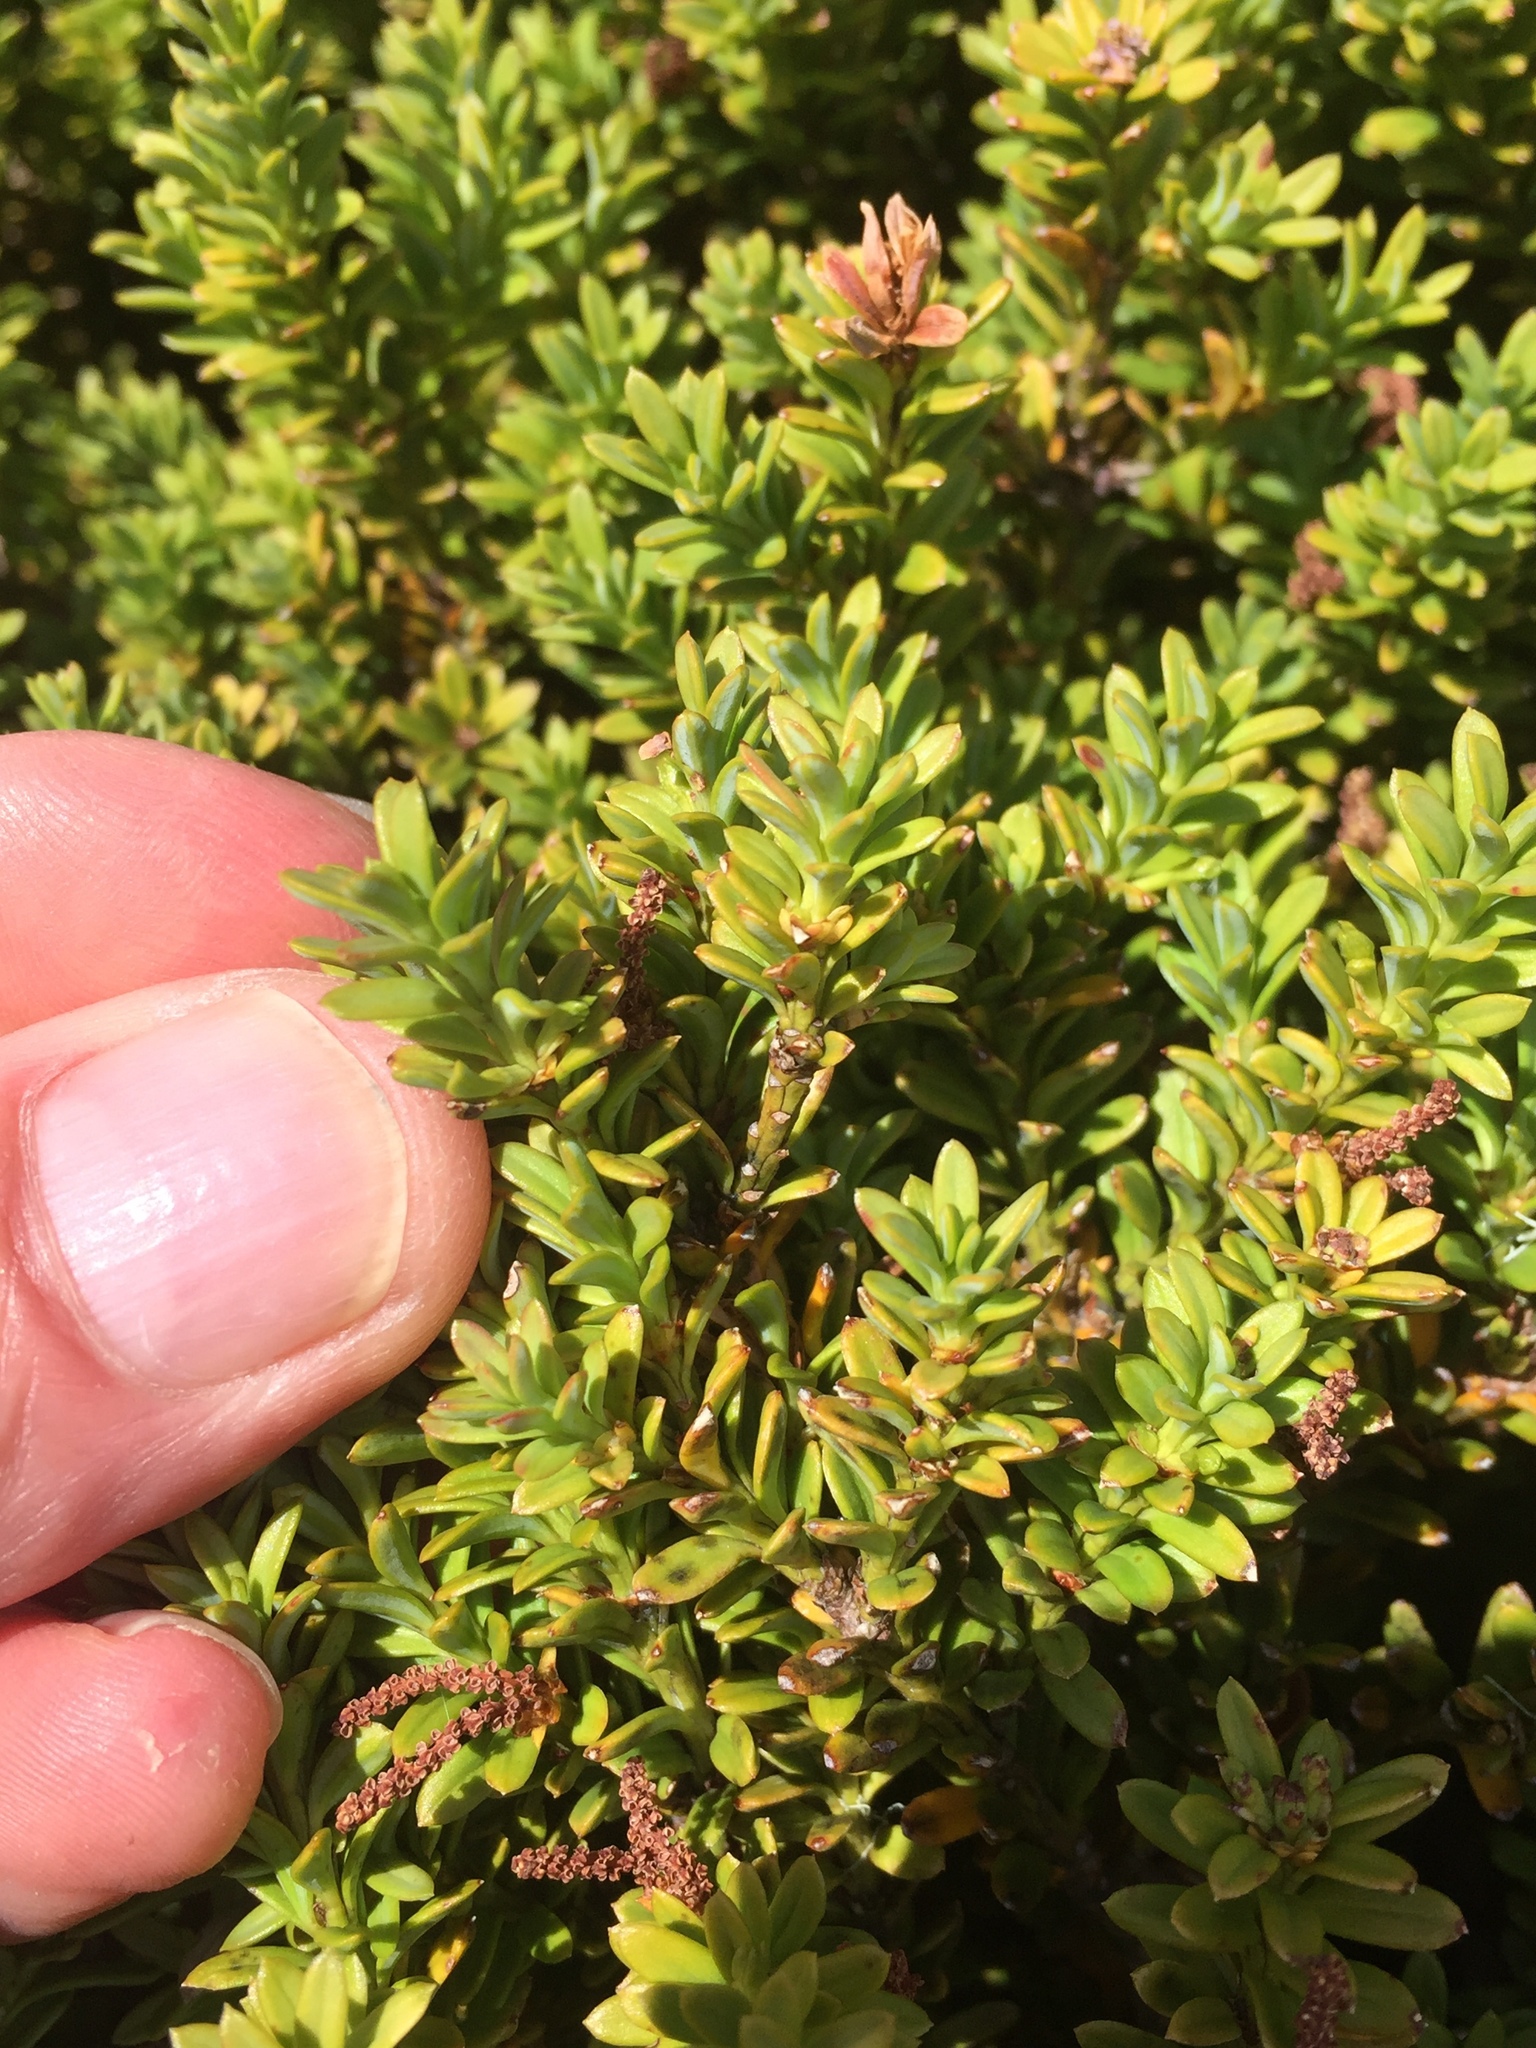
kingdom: Plantae
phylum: Tracheophyta
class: Pinopsida
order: Pinales
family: Podocarpaceae
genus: Podocarpus
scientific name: Podocarpus nivalis
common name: Alpine totara
